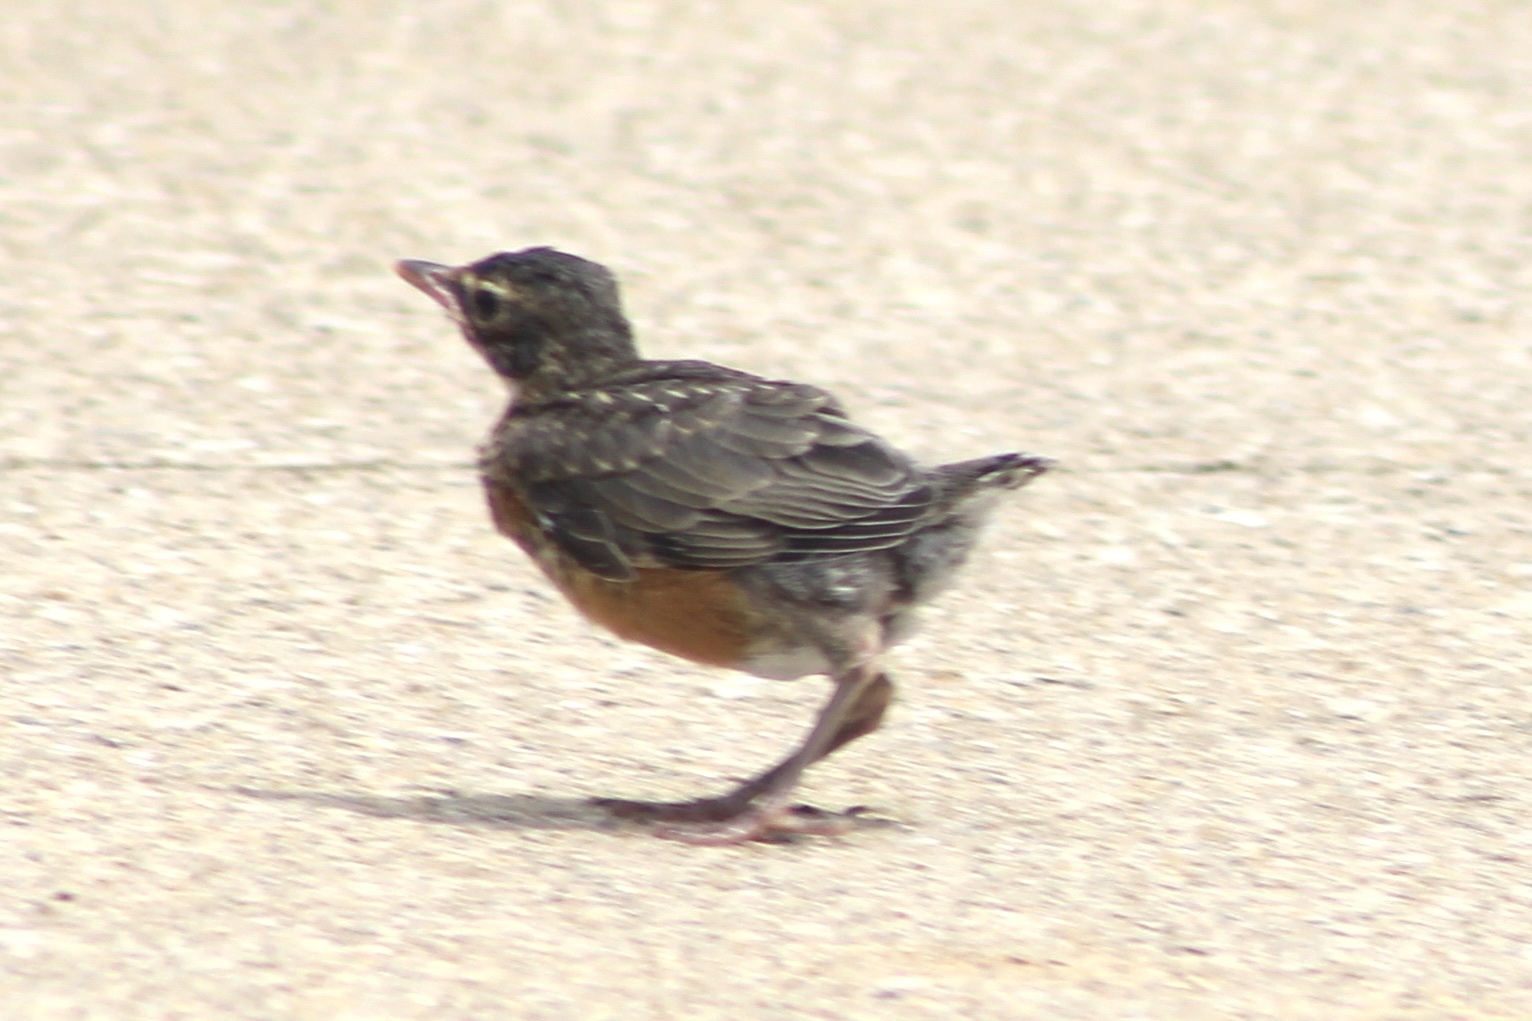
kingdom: Animalia
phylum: Chordata
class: Aves
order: Passeriformes
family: Turdidae
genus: Turdus
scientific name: Turdus migratorius
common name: American robin
